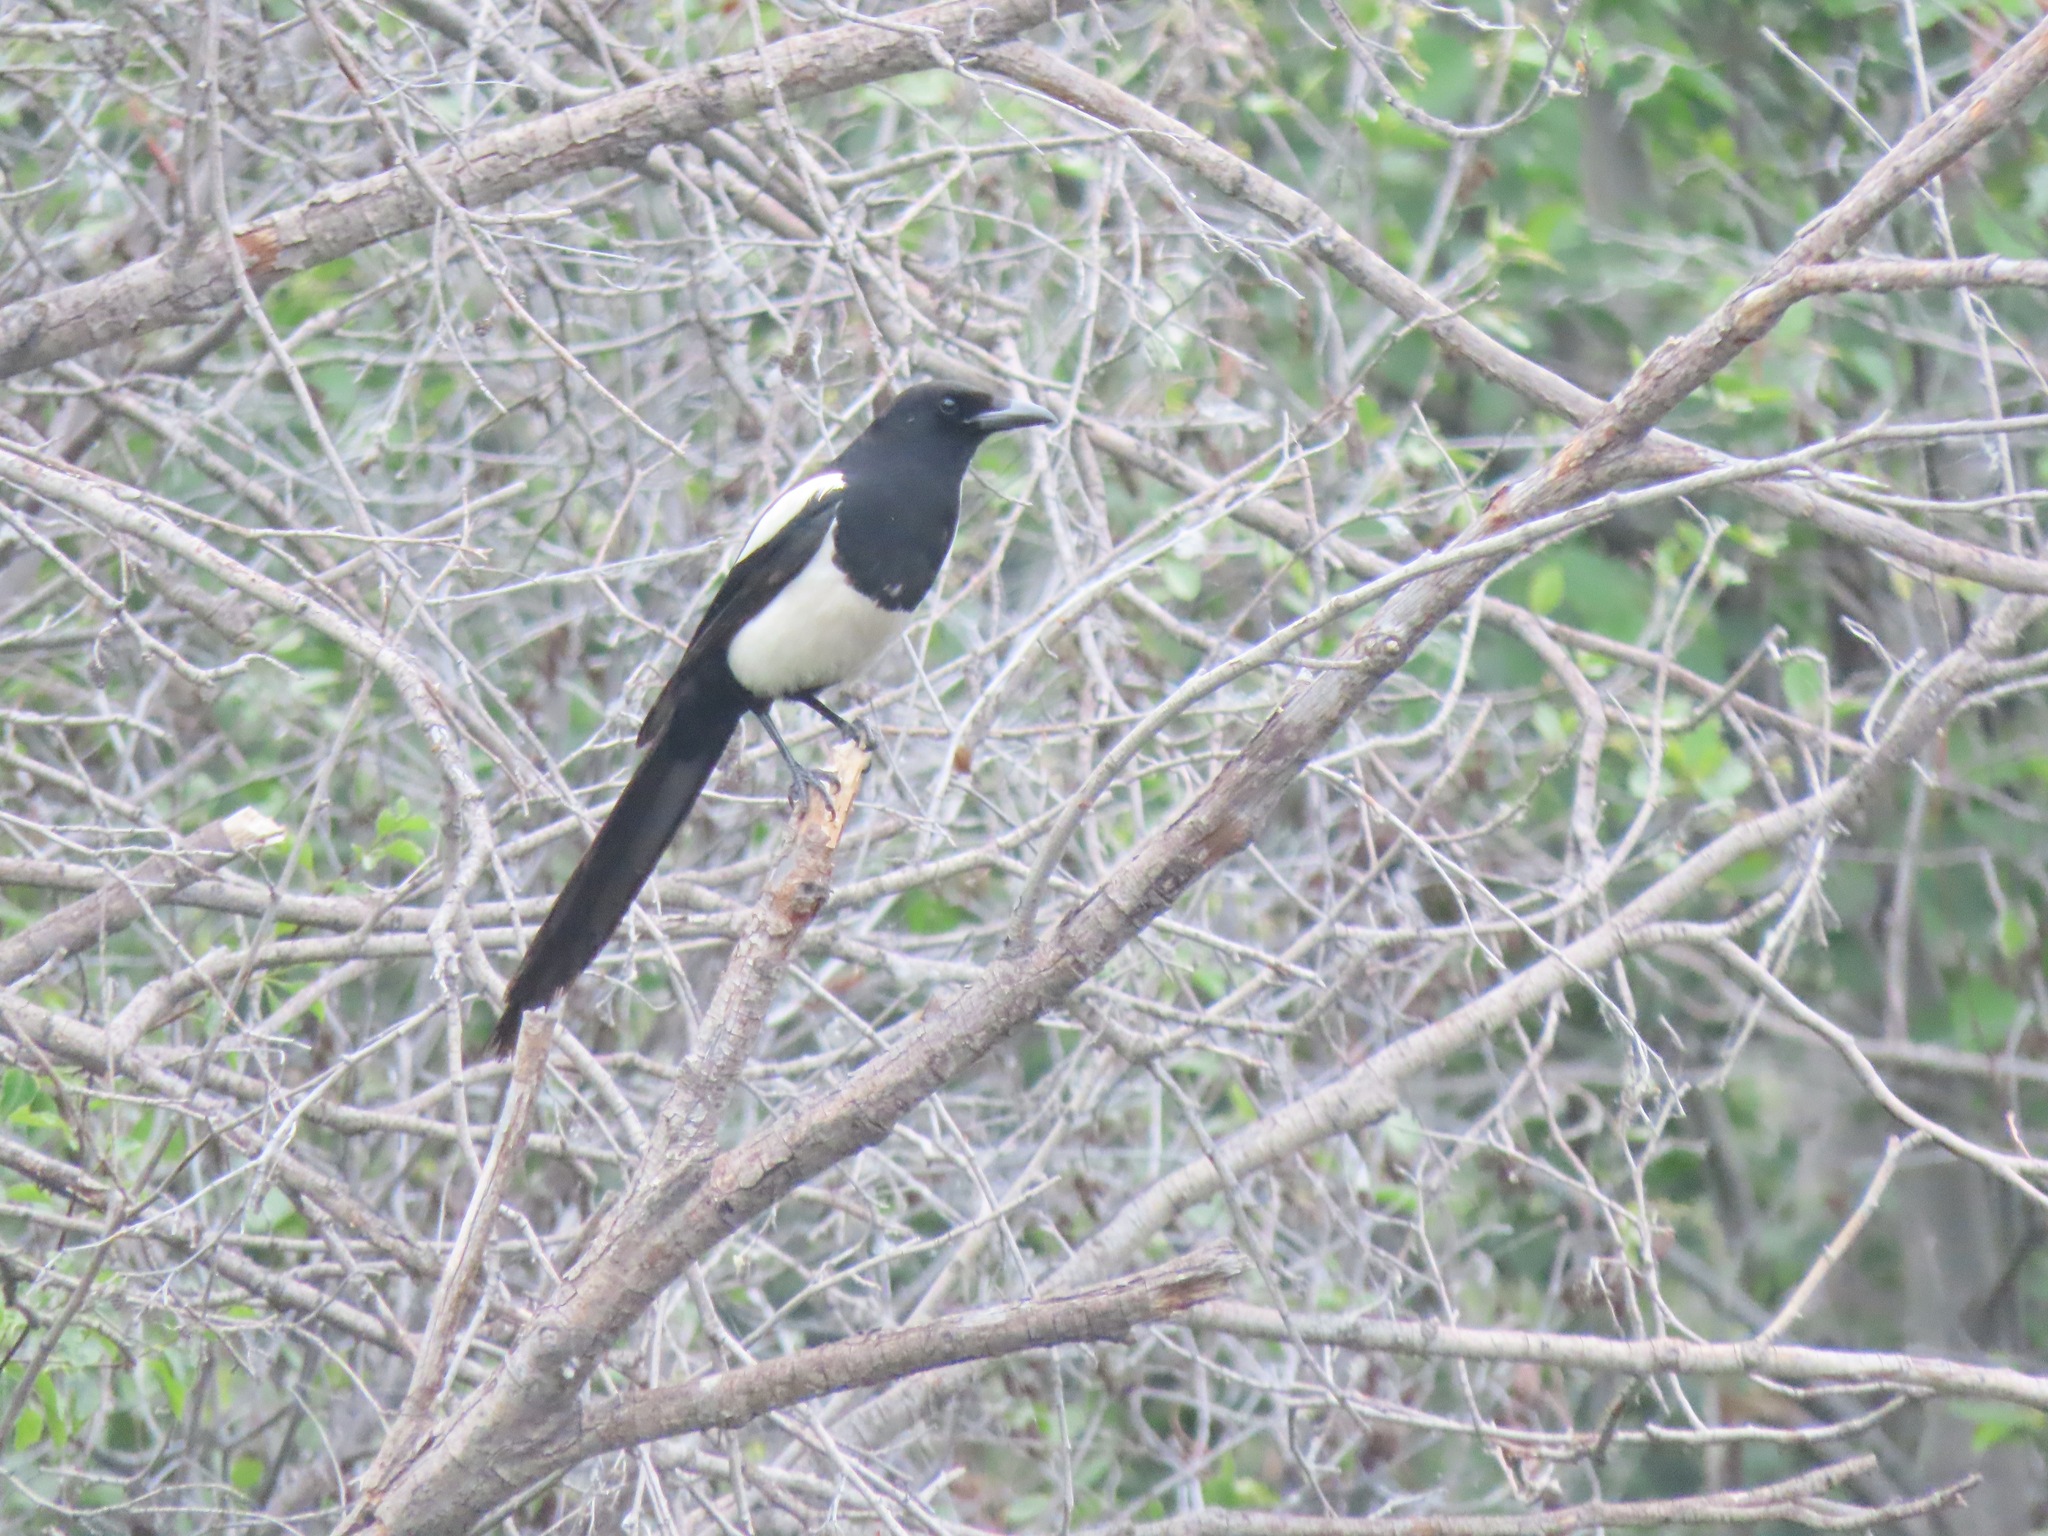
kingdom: Animalia
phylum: Chordata
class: Aves
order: Passeriformes
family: Corvidae
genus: Pica
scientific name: Pica hudsonia
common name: Black-billed magpie
